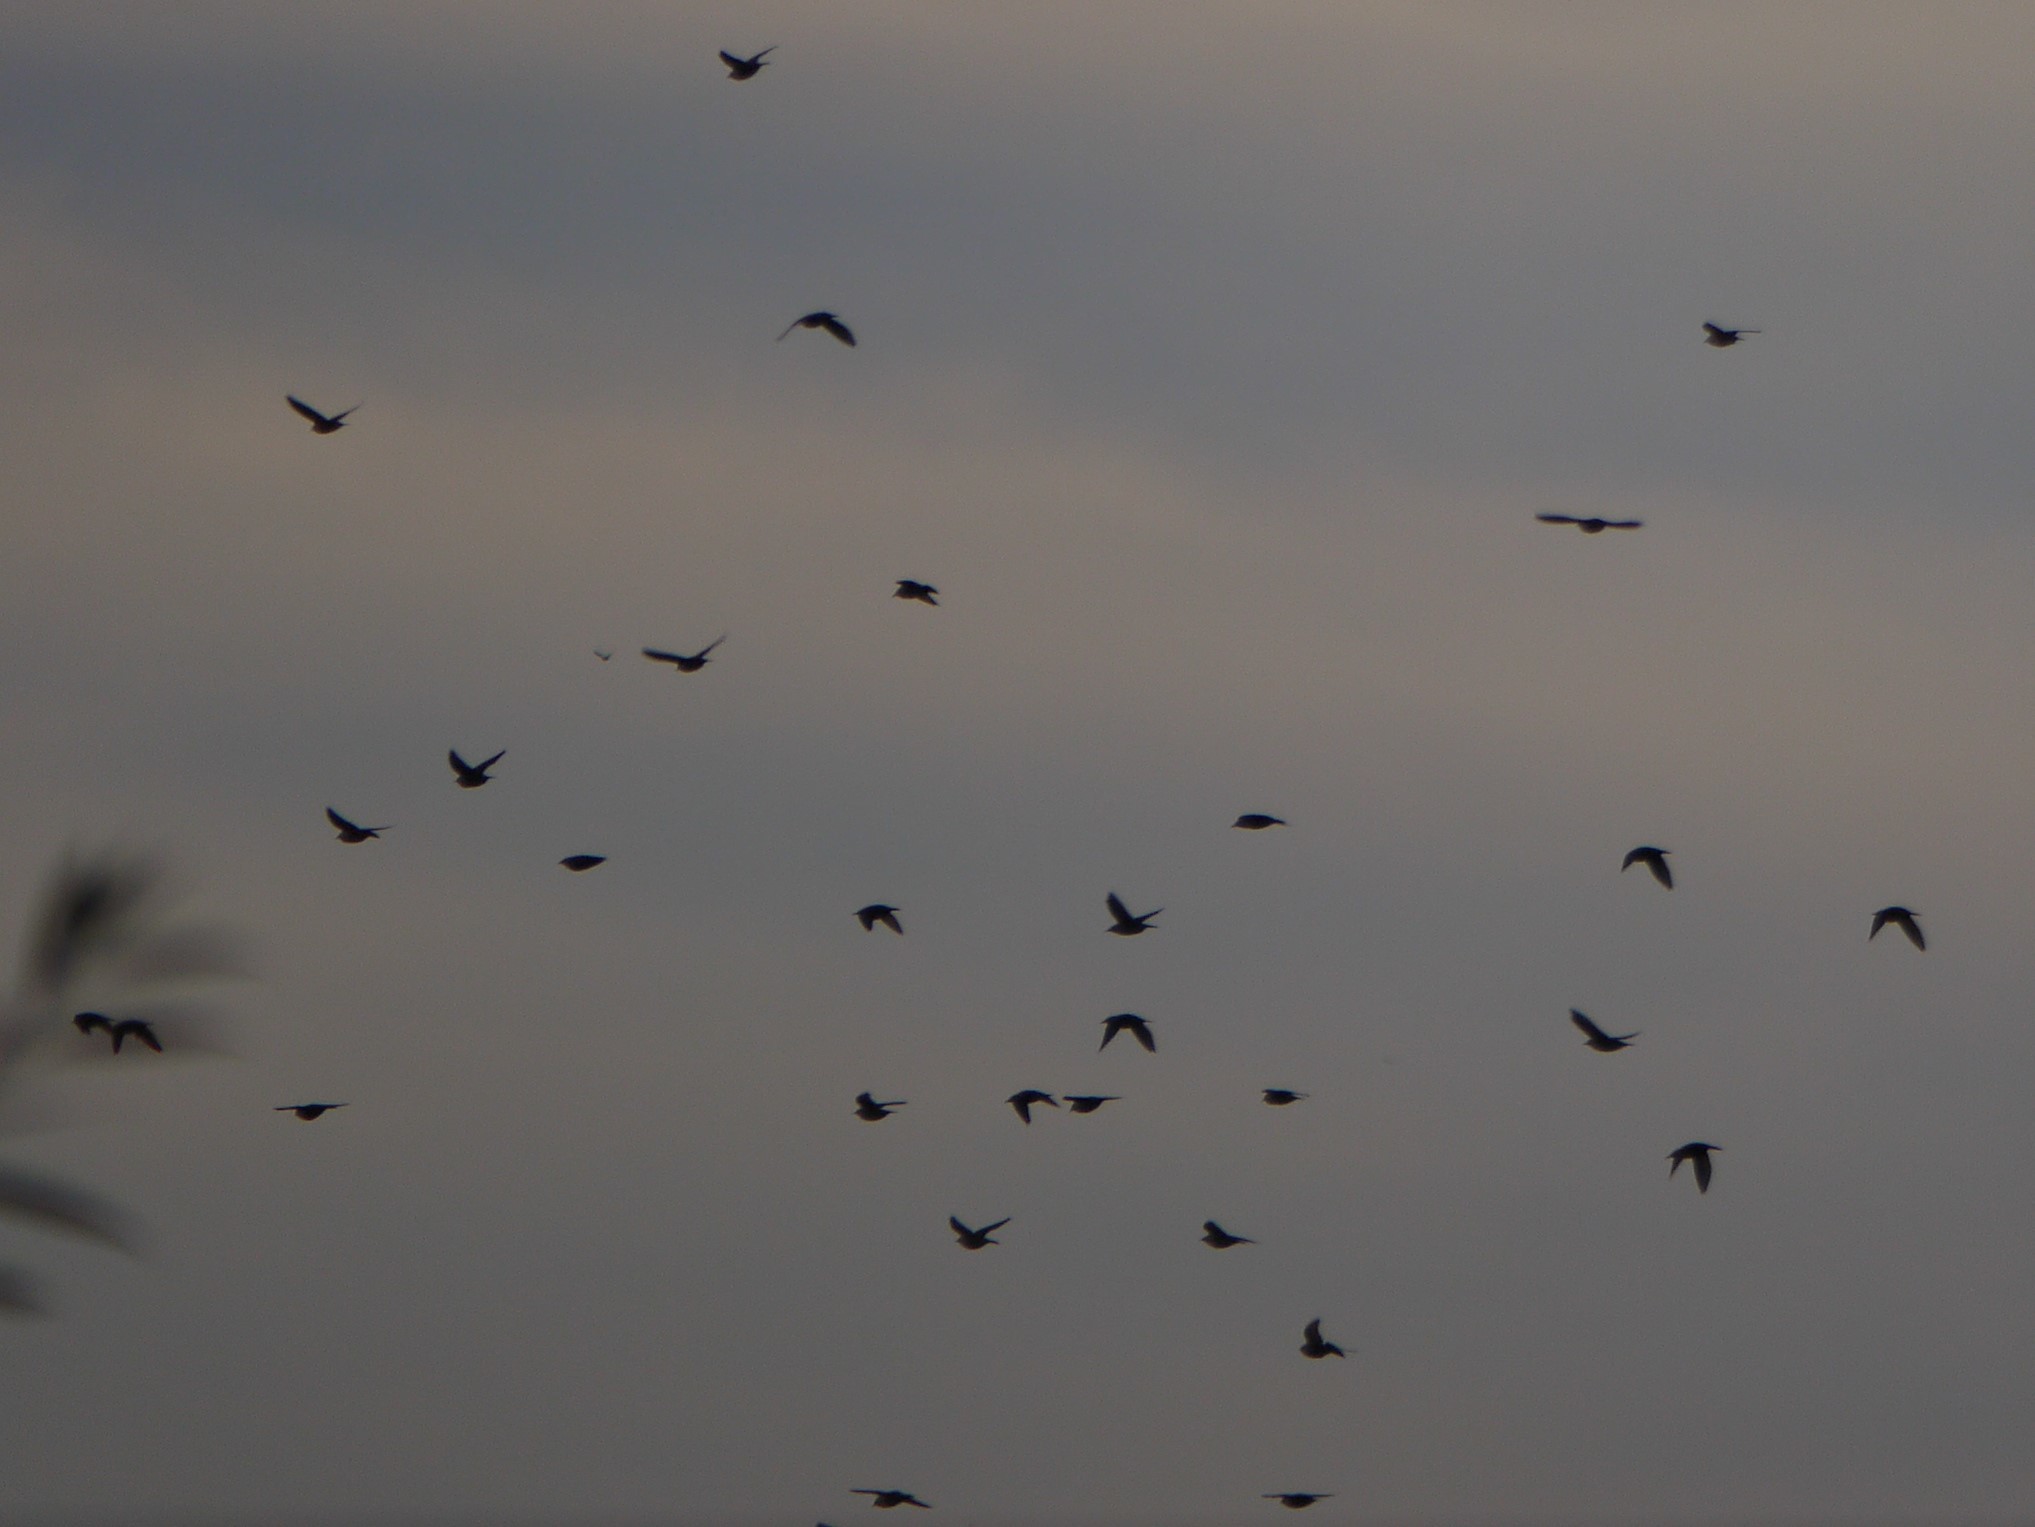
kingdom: Animalia
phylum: Chordata
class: Aves
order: Passeriformes
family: Sturnidae
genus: Sturnus
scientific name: Sturnus vulgaris
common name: Common starling
